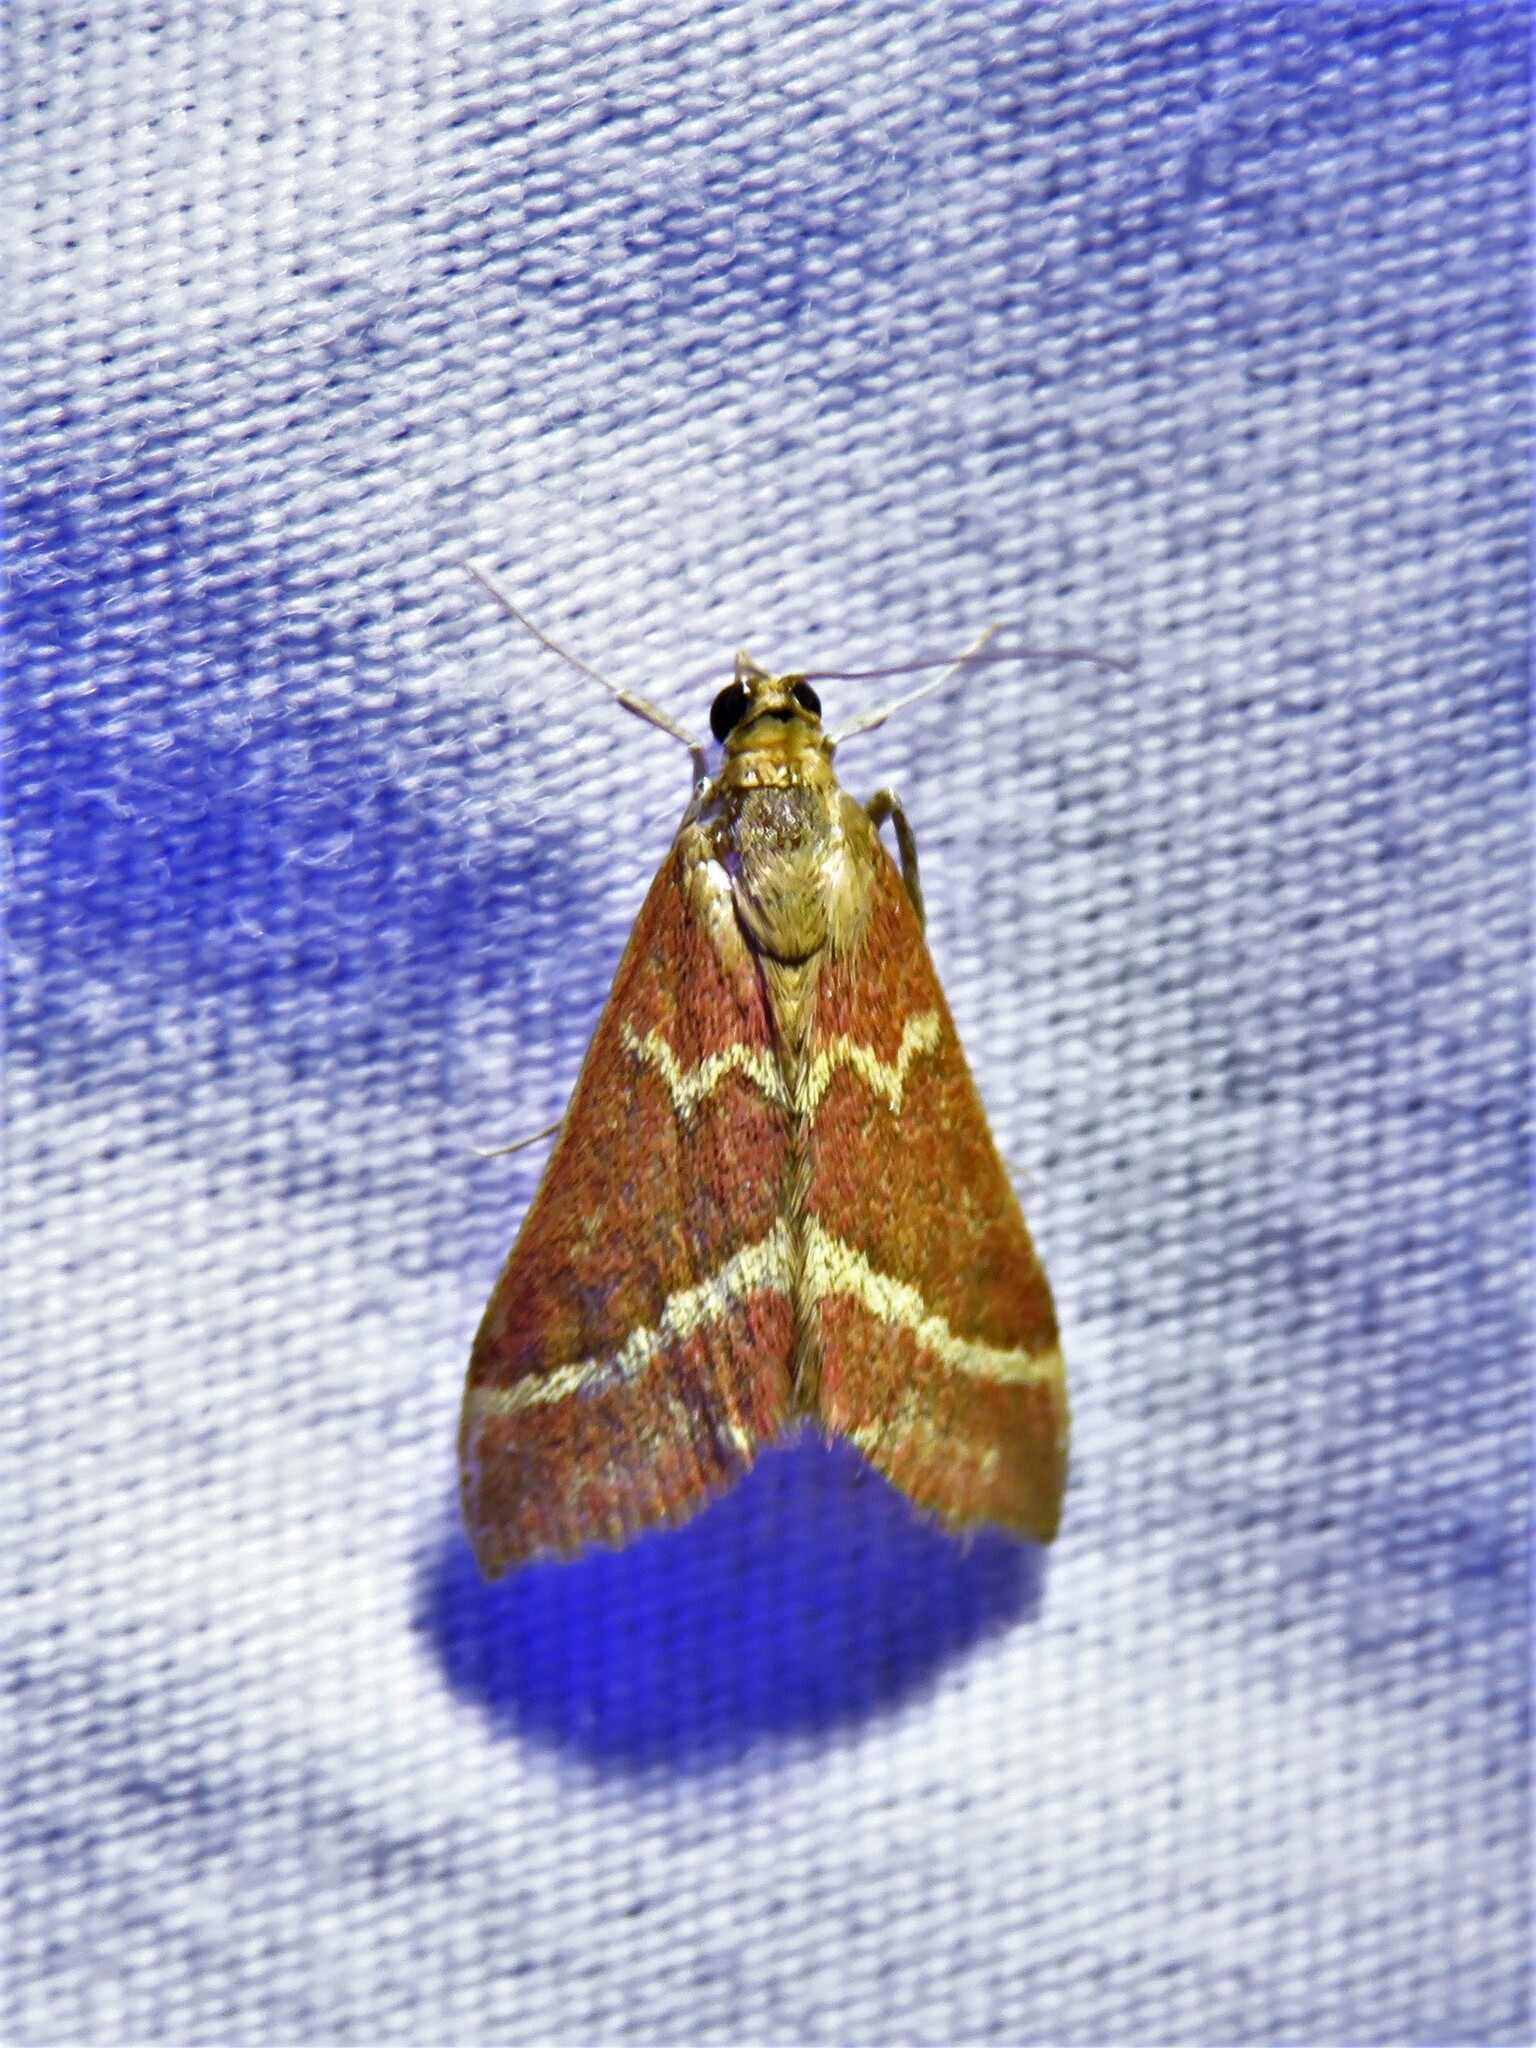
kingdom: Animalia
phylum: Arthropoda
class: Insecta
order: Lepidoptera
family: Crambidae
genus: Pyrausta
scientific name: Pyrausta volupialis
